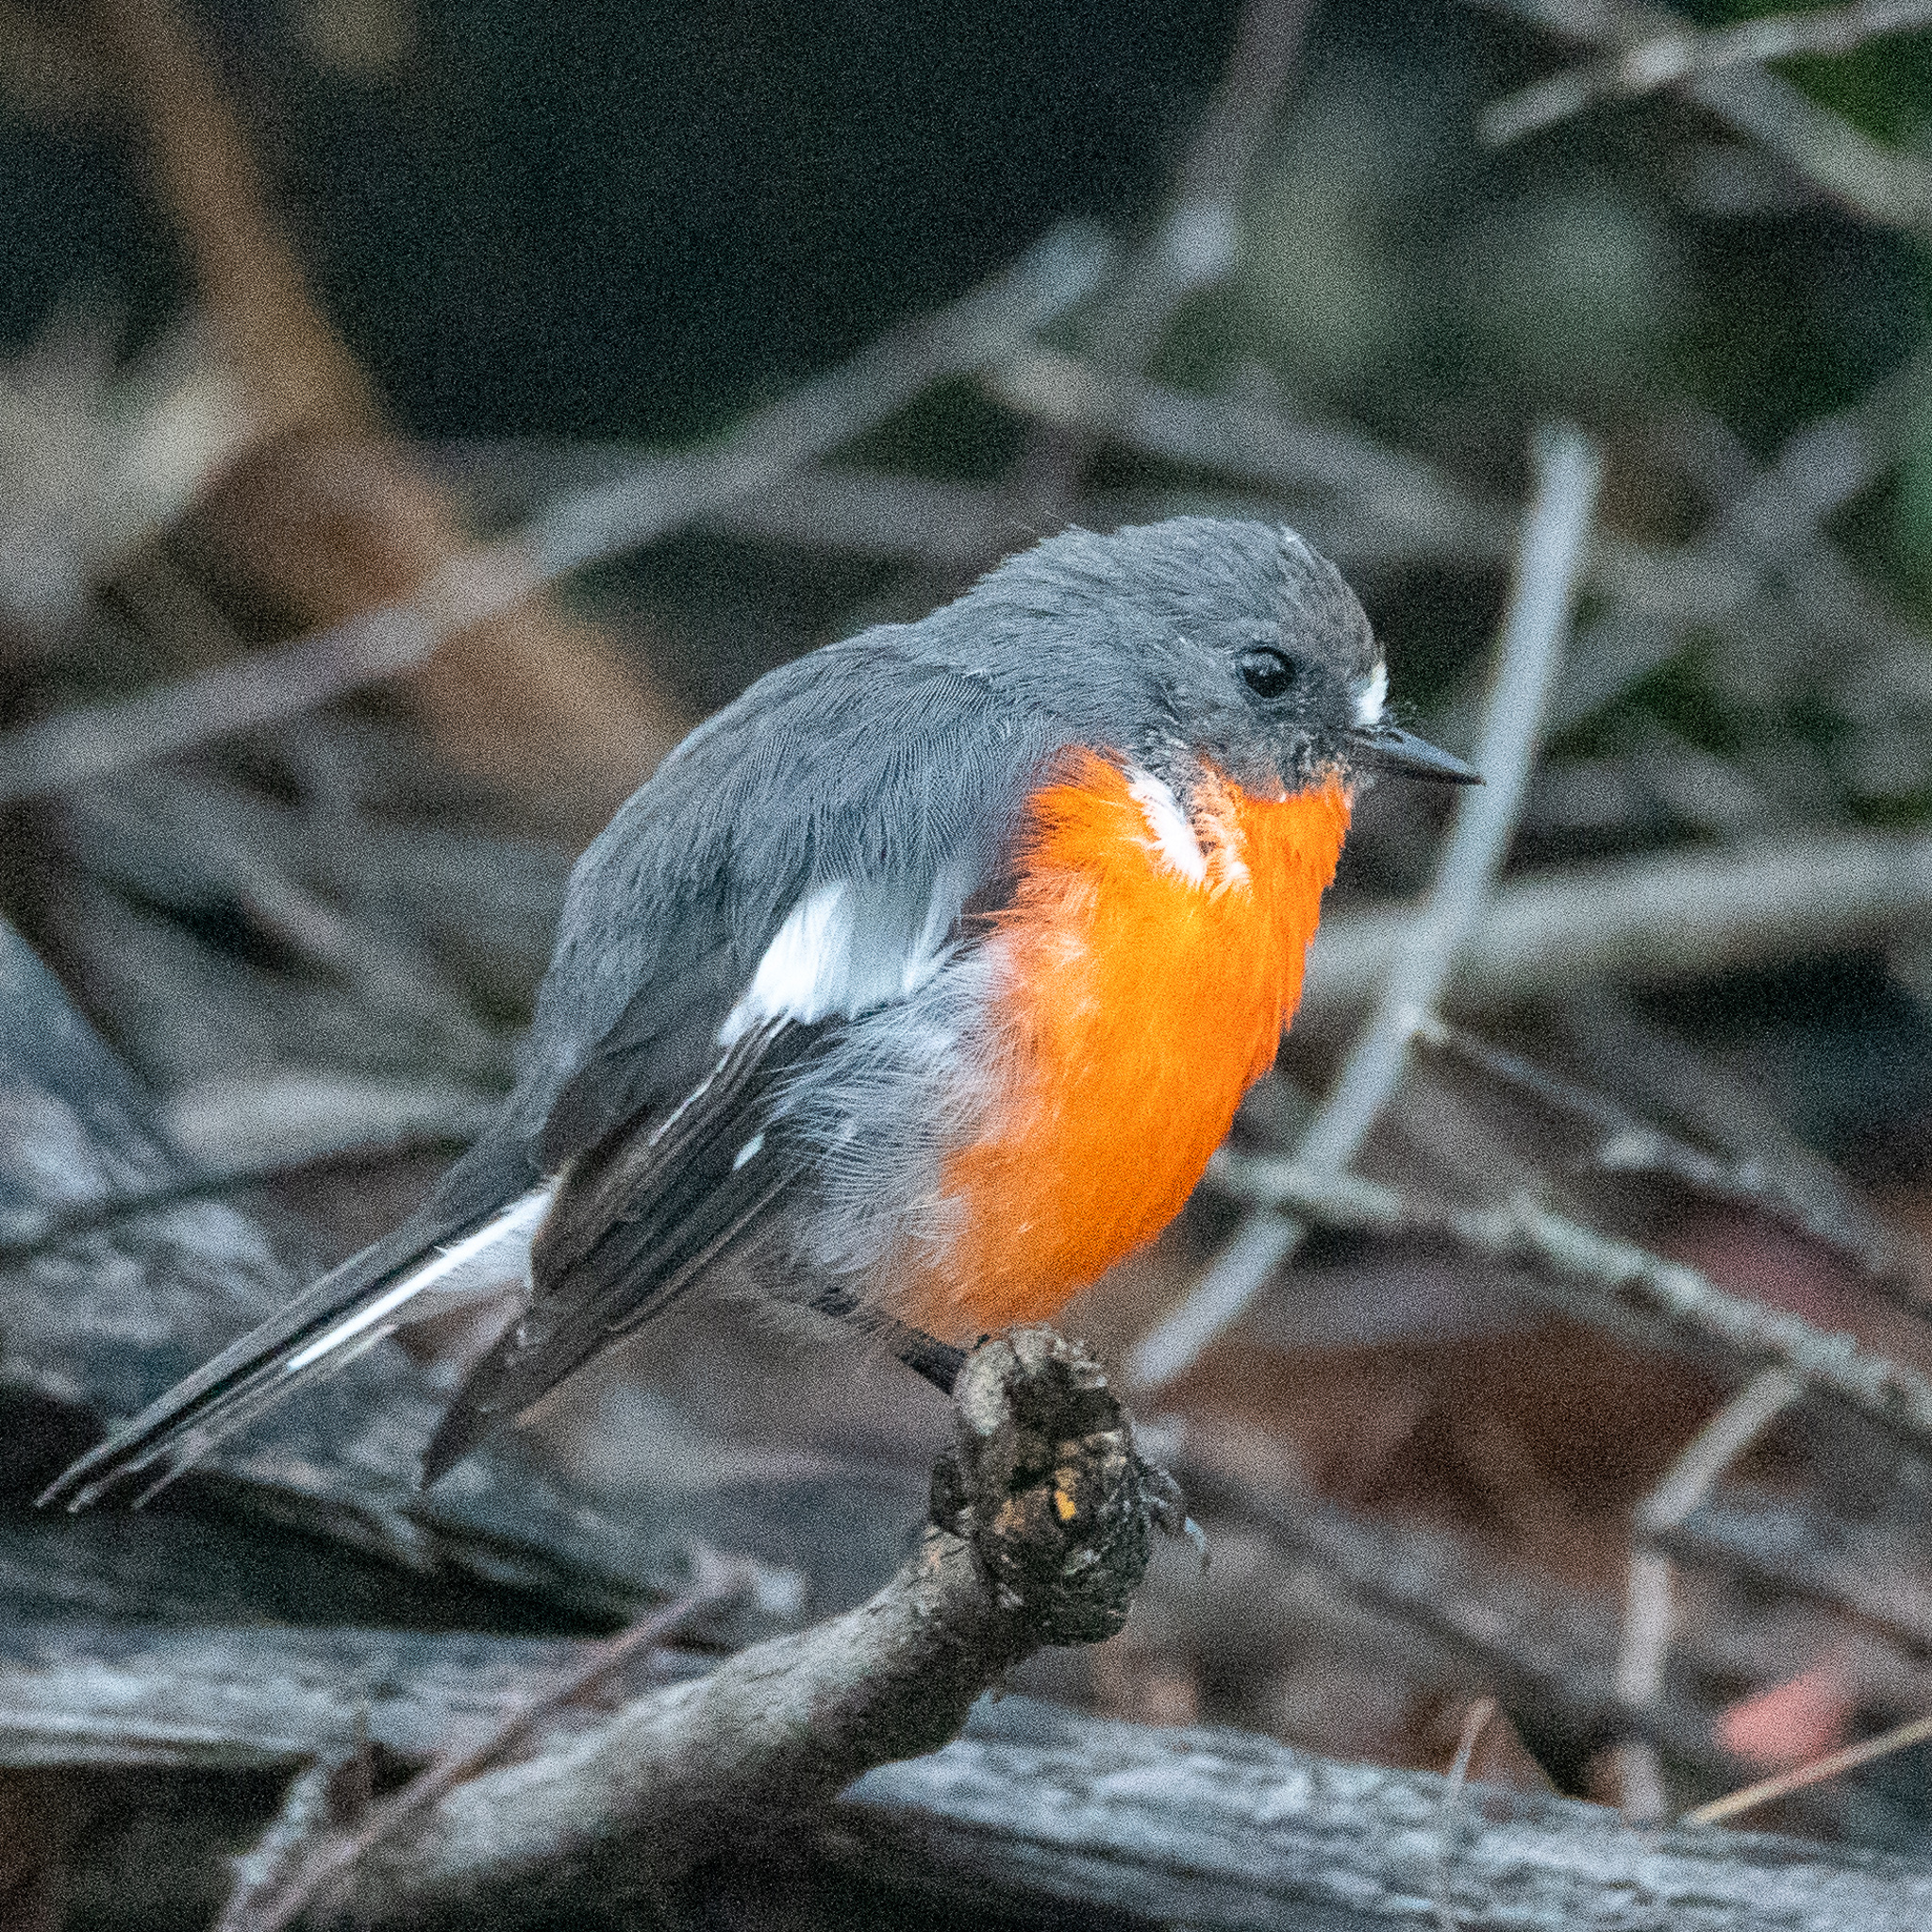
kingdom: Animalia
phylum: Chordata
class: Aves
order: Passeriformes
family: Petroicidae
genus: Petroica
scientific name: Petroica phoenicea
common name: Flame robin
